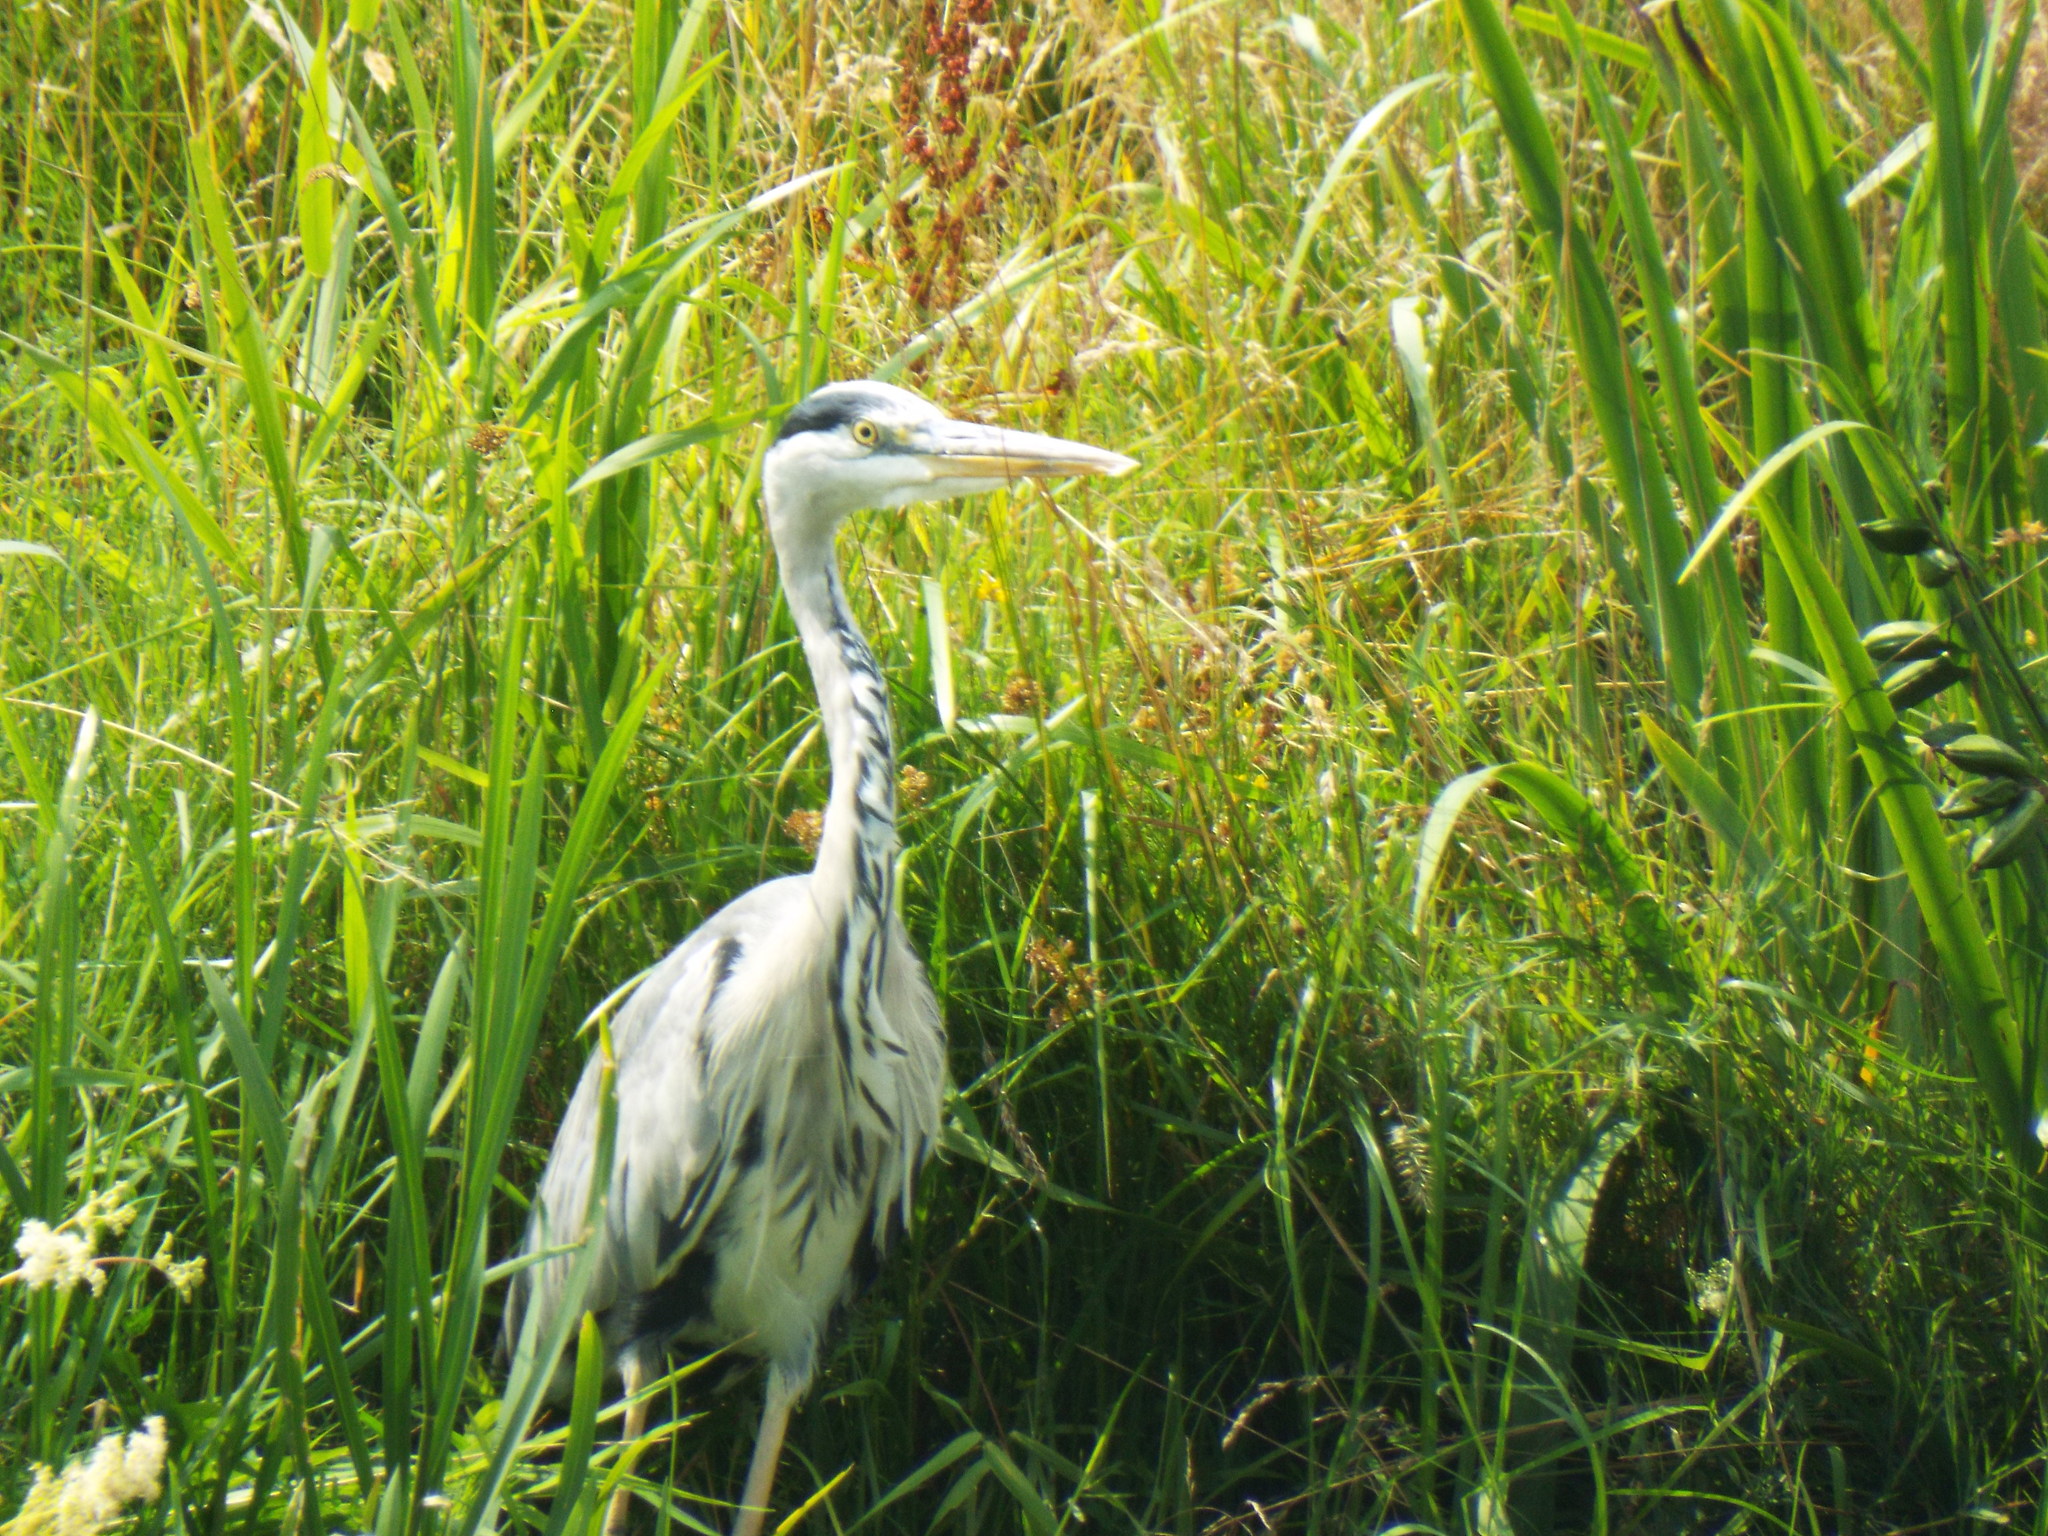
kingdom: Animalia
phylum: Chordata
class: Aves
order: Pelecaniformes
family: Ardeidae
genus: Ardea
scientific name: Ardea cinerea
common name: Grey heron
